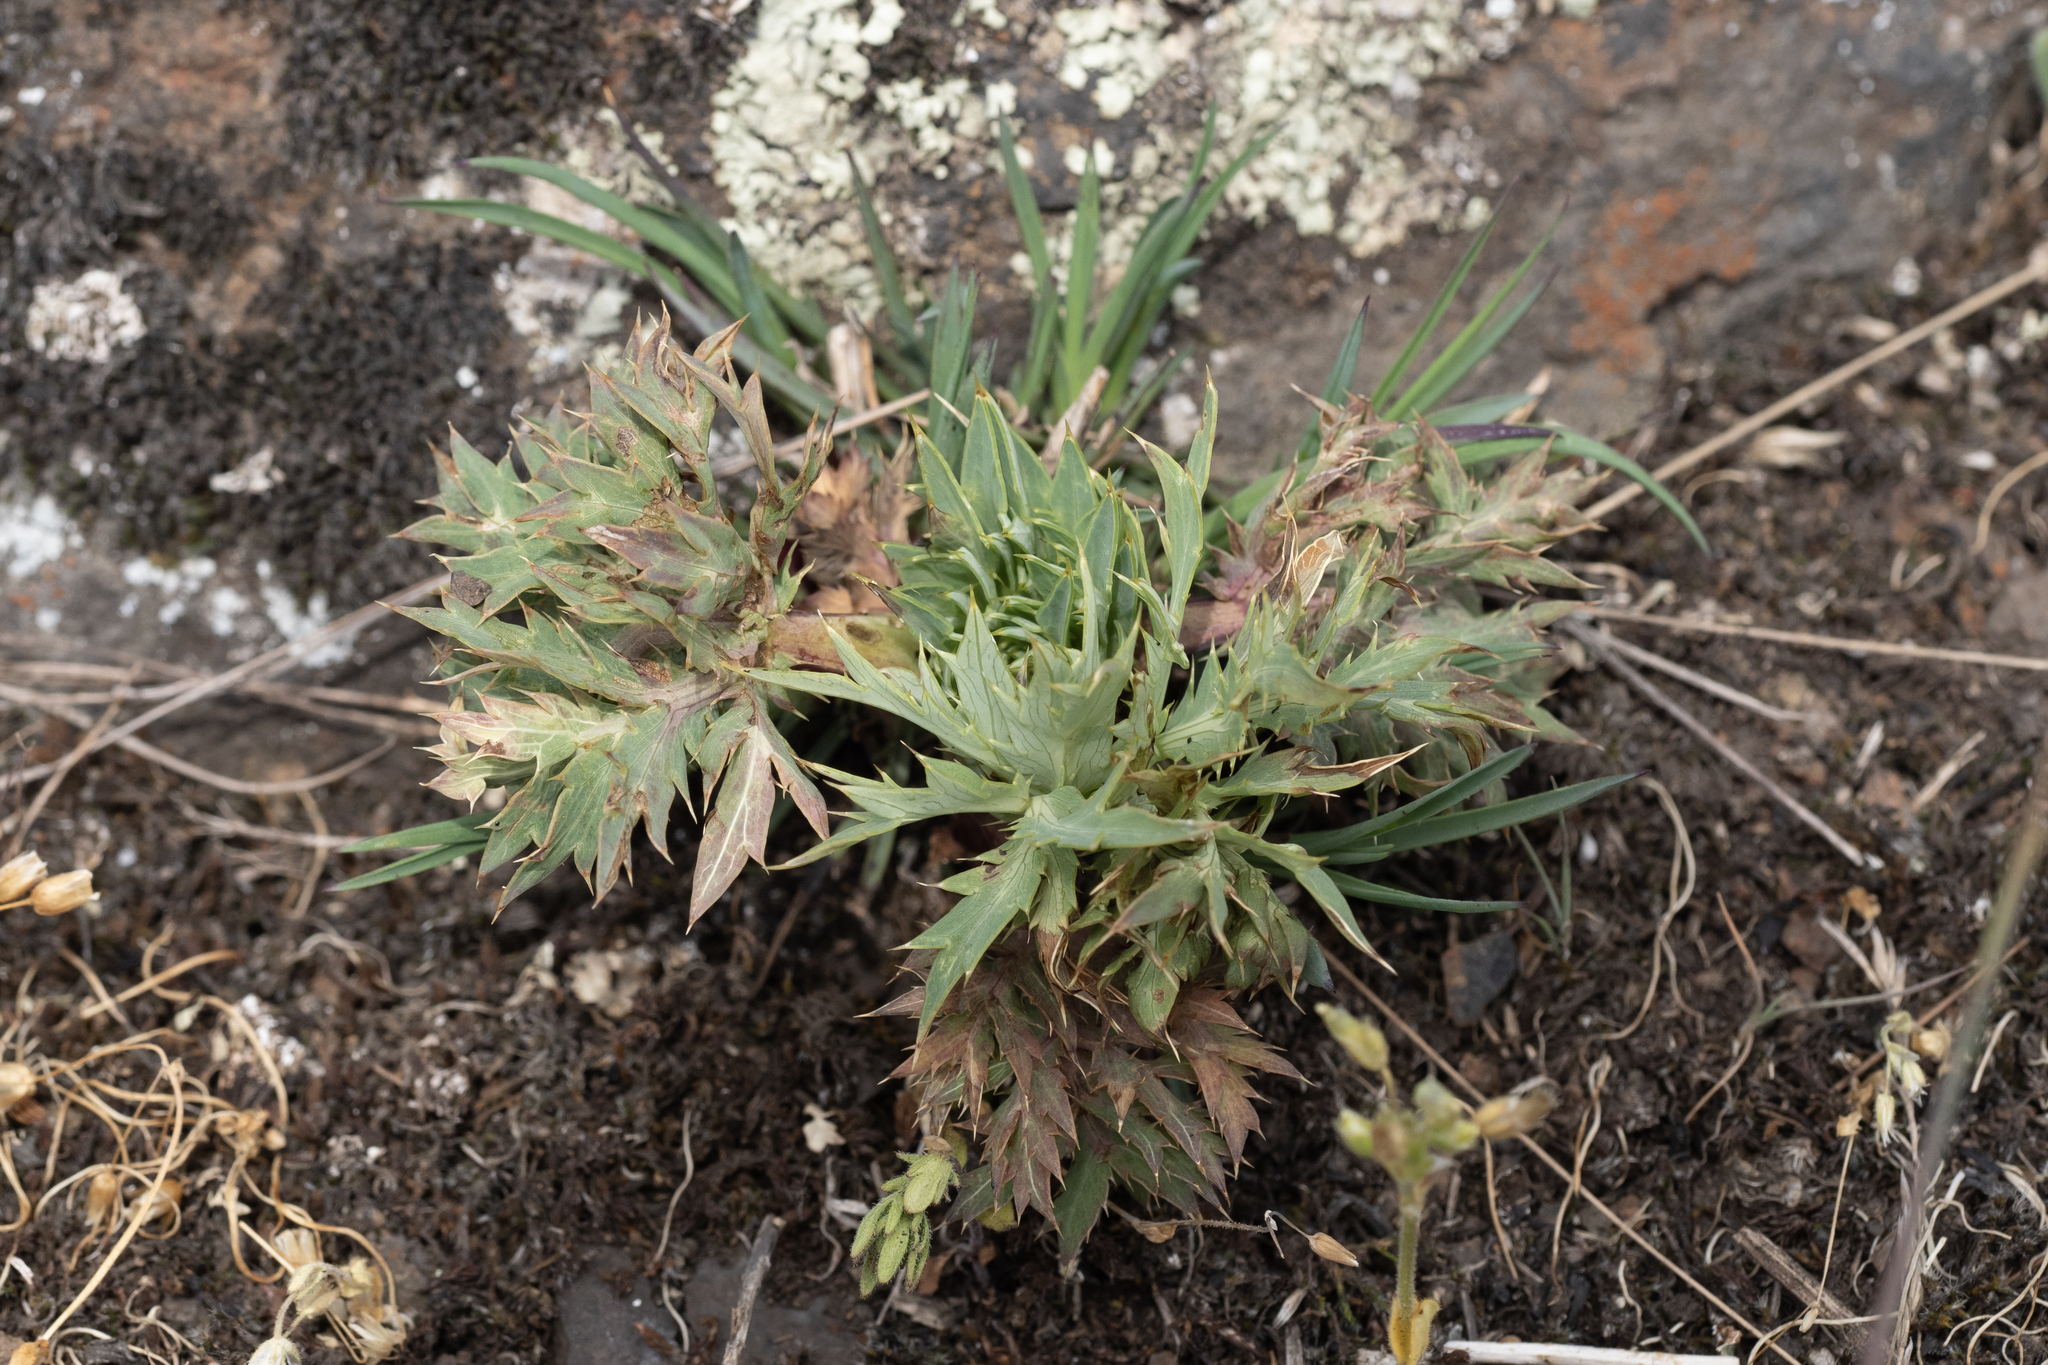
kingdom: Plantae
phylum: Tracheophyta
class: Magnoliopsida
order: Apiales
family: Apiaceae
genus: Eryngium
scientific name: Eryngium campestre
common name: Field eryngo
